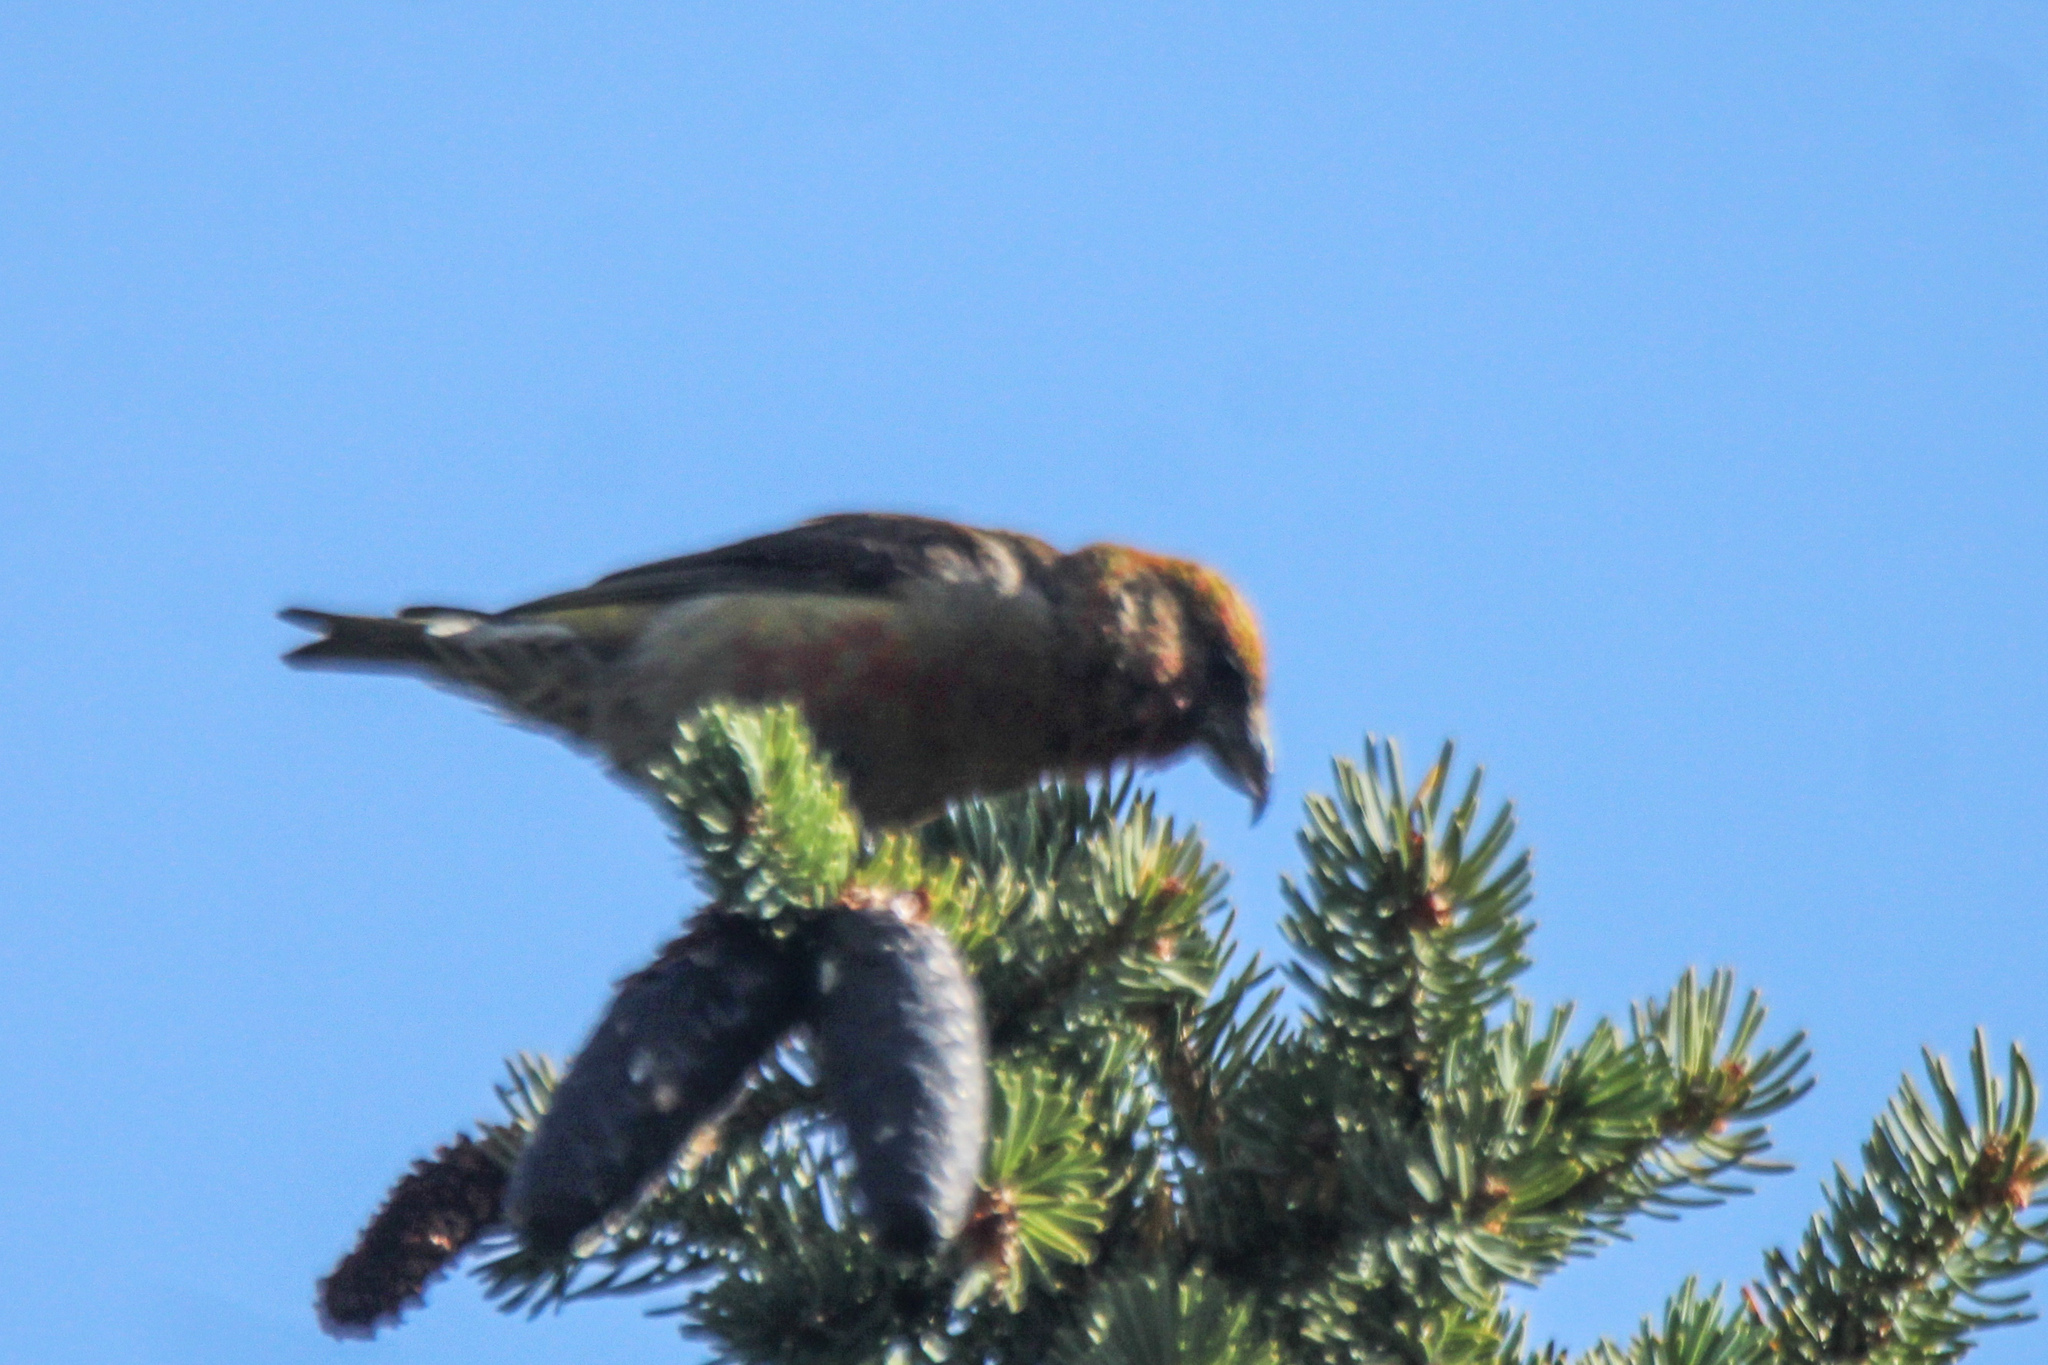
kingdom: Animalia
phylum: Chordata
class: Aves
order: Passeriformes
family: Fringillidae
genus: Loxia
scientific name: Loxia curvirostra
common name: Red crossbill
